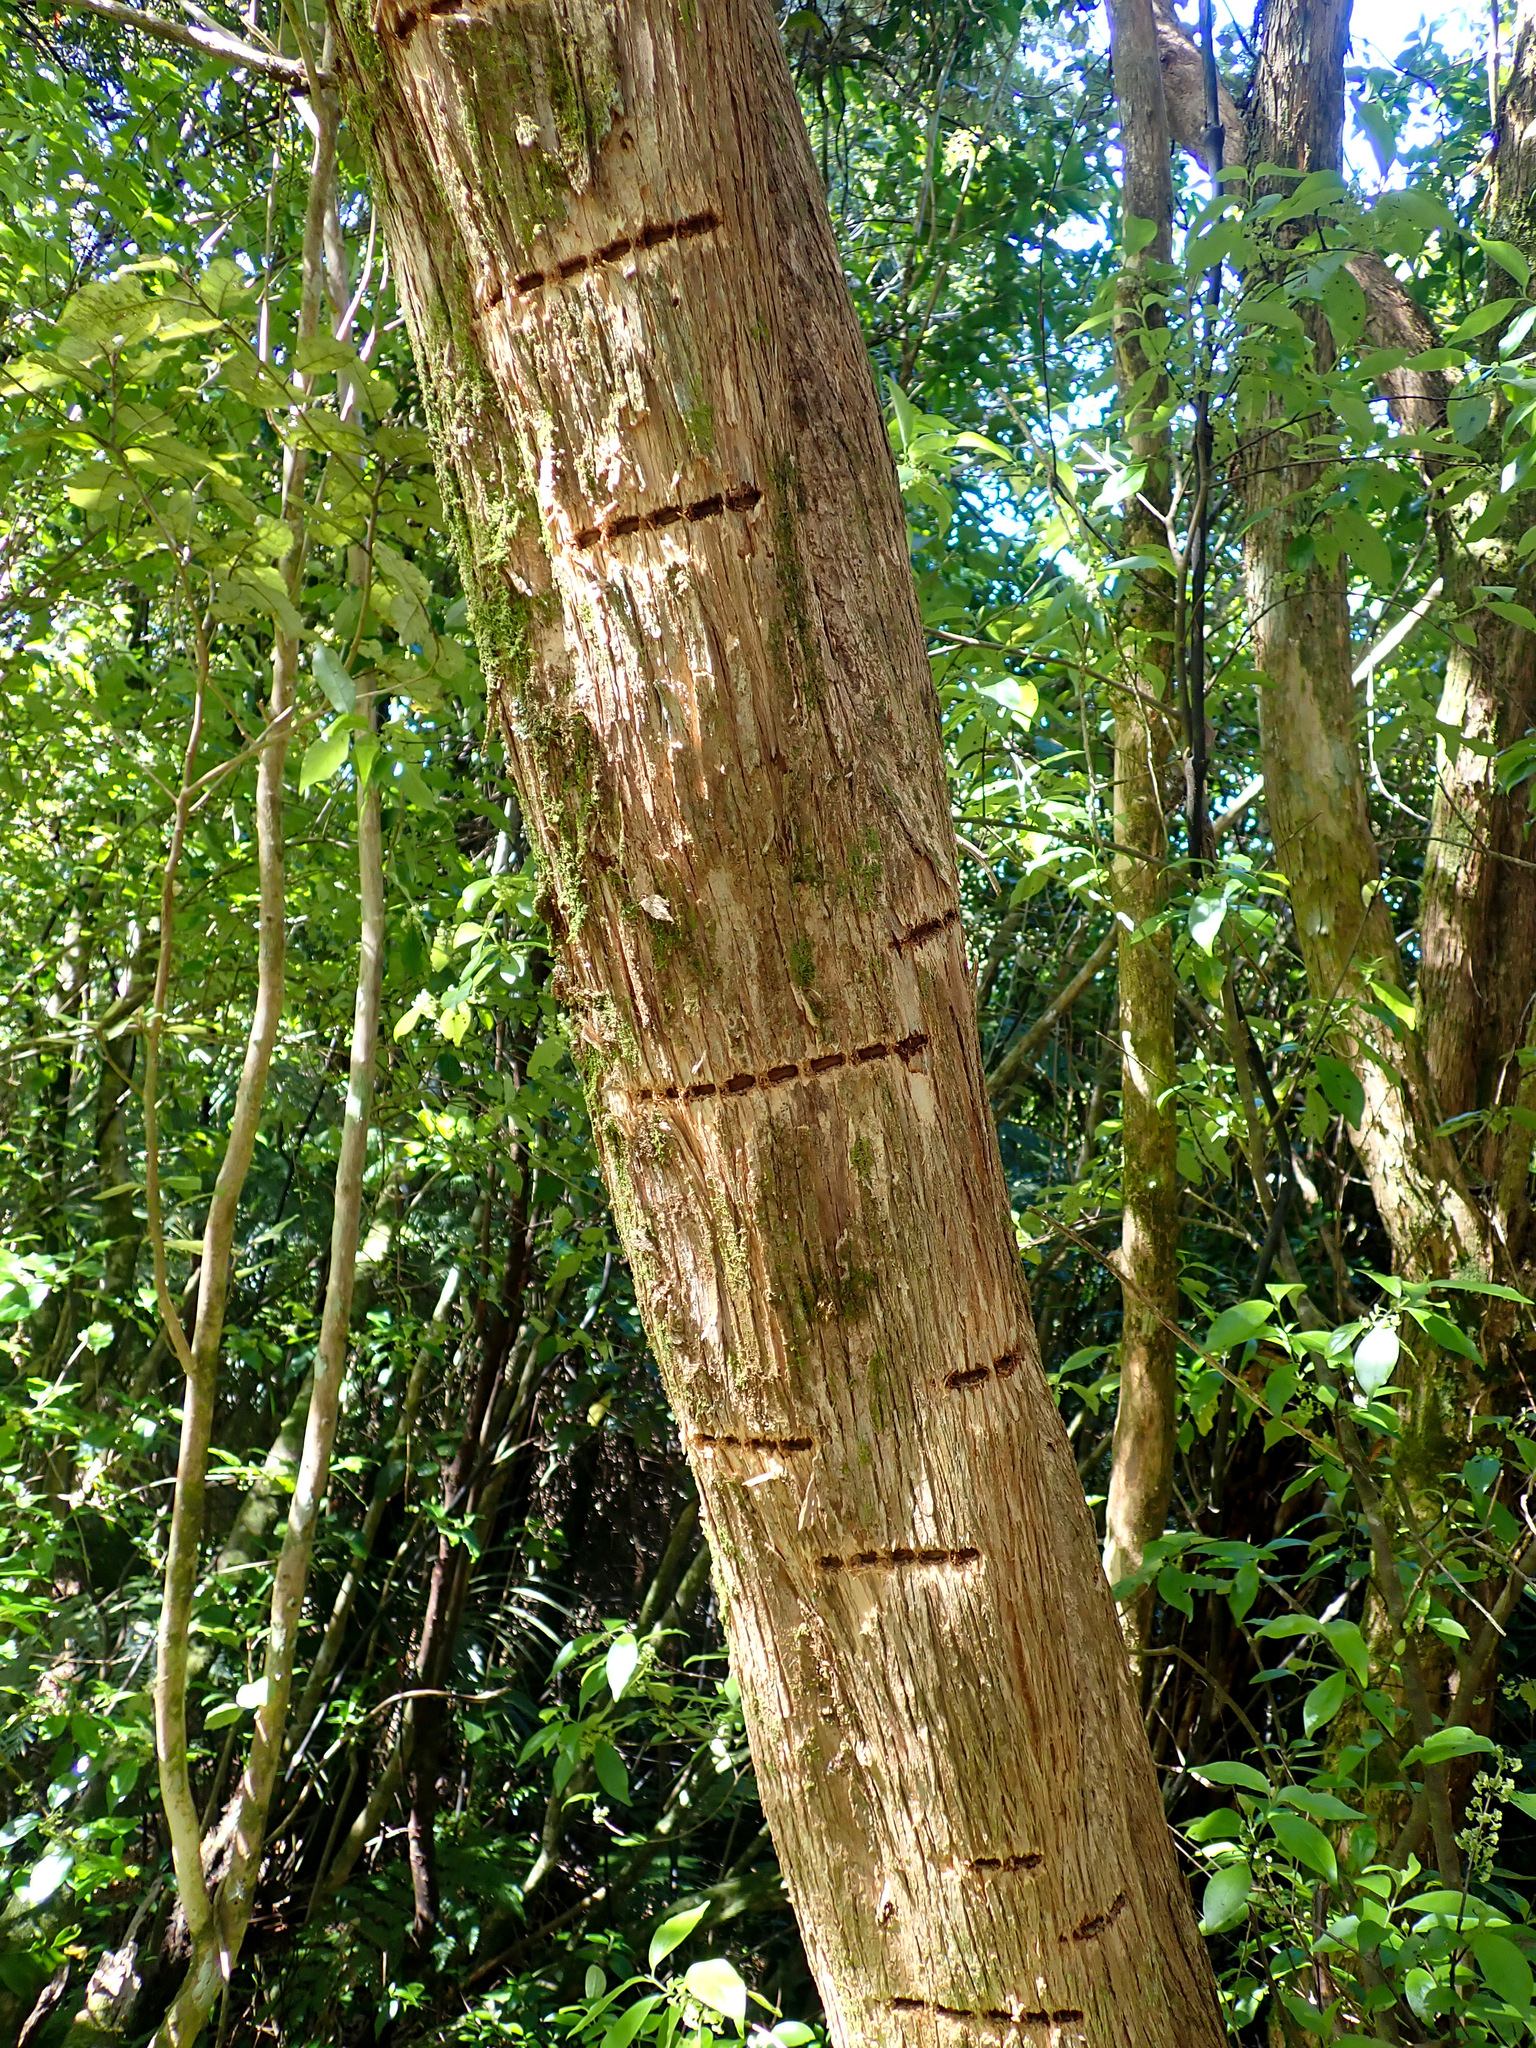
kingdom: Animalia
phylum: Chordata
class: Aves
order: Psittaciformes
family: Psittacidae
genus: Nestor
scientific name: Nestor meridionalis
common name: New zealand kaka
